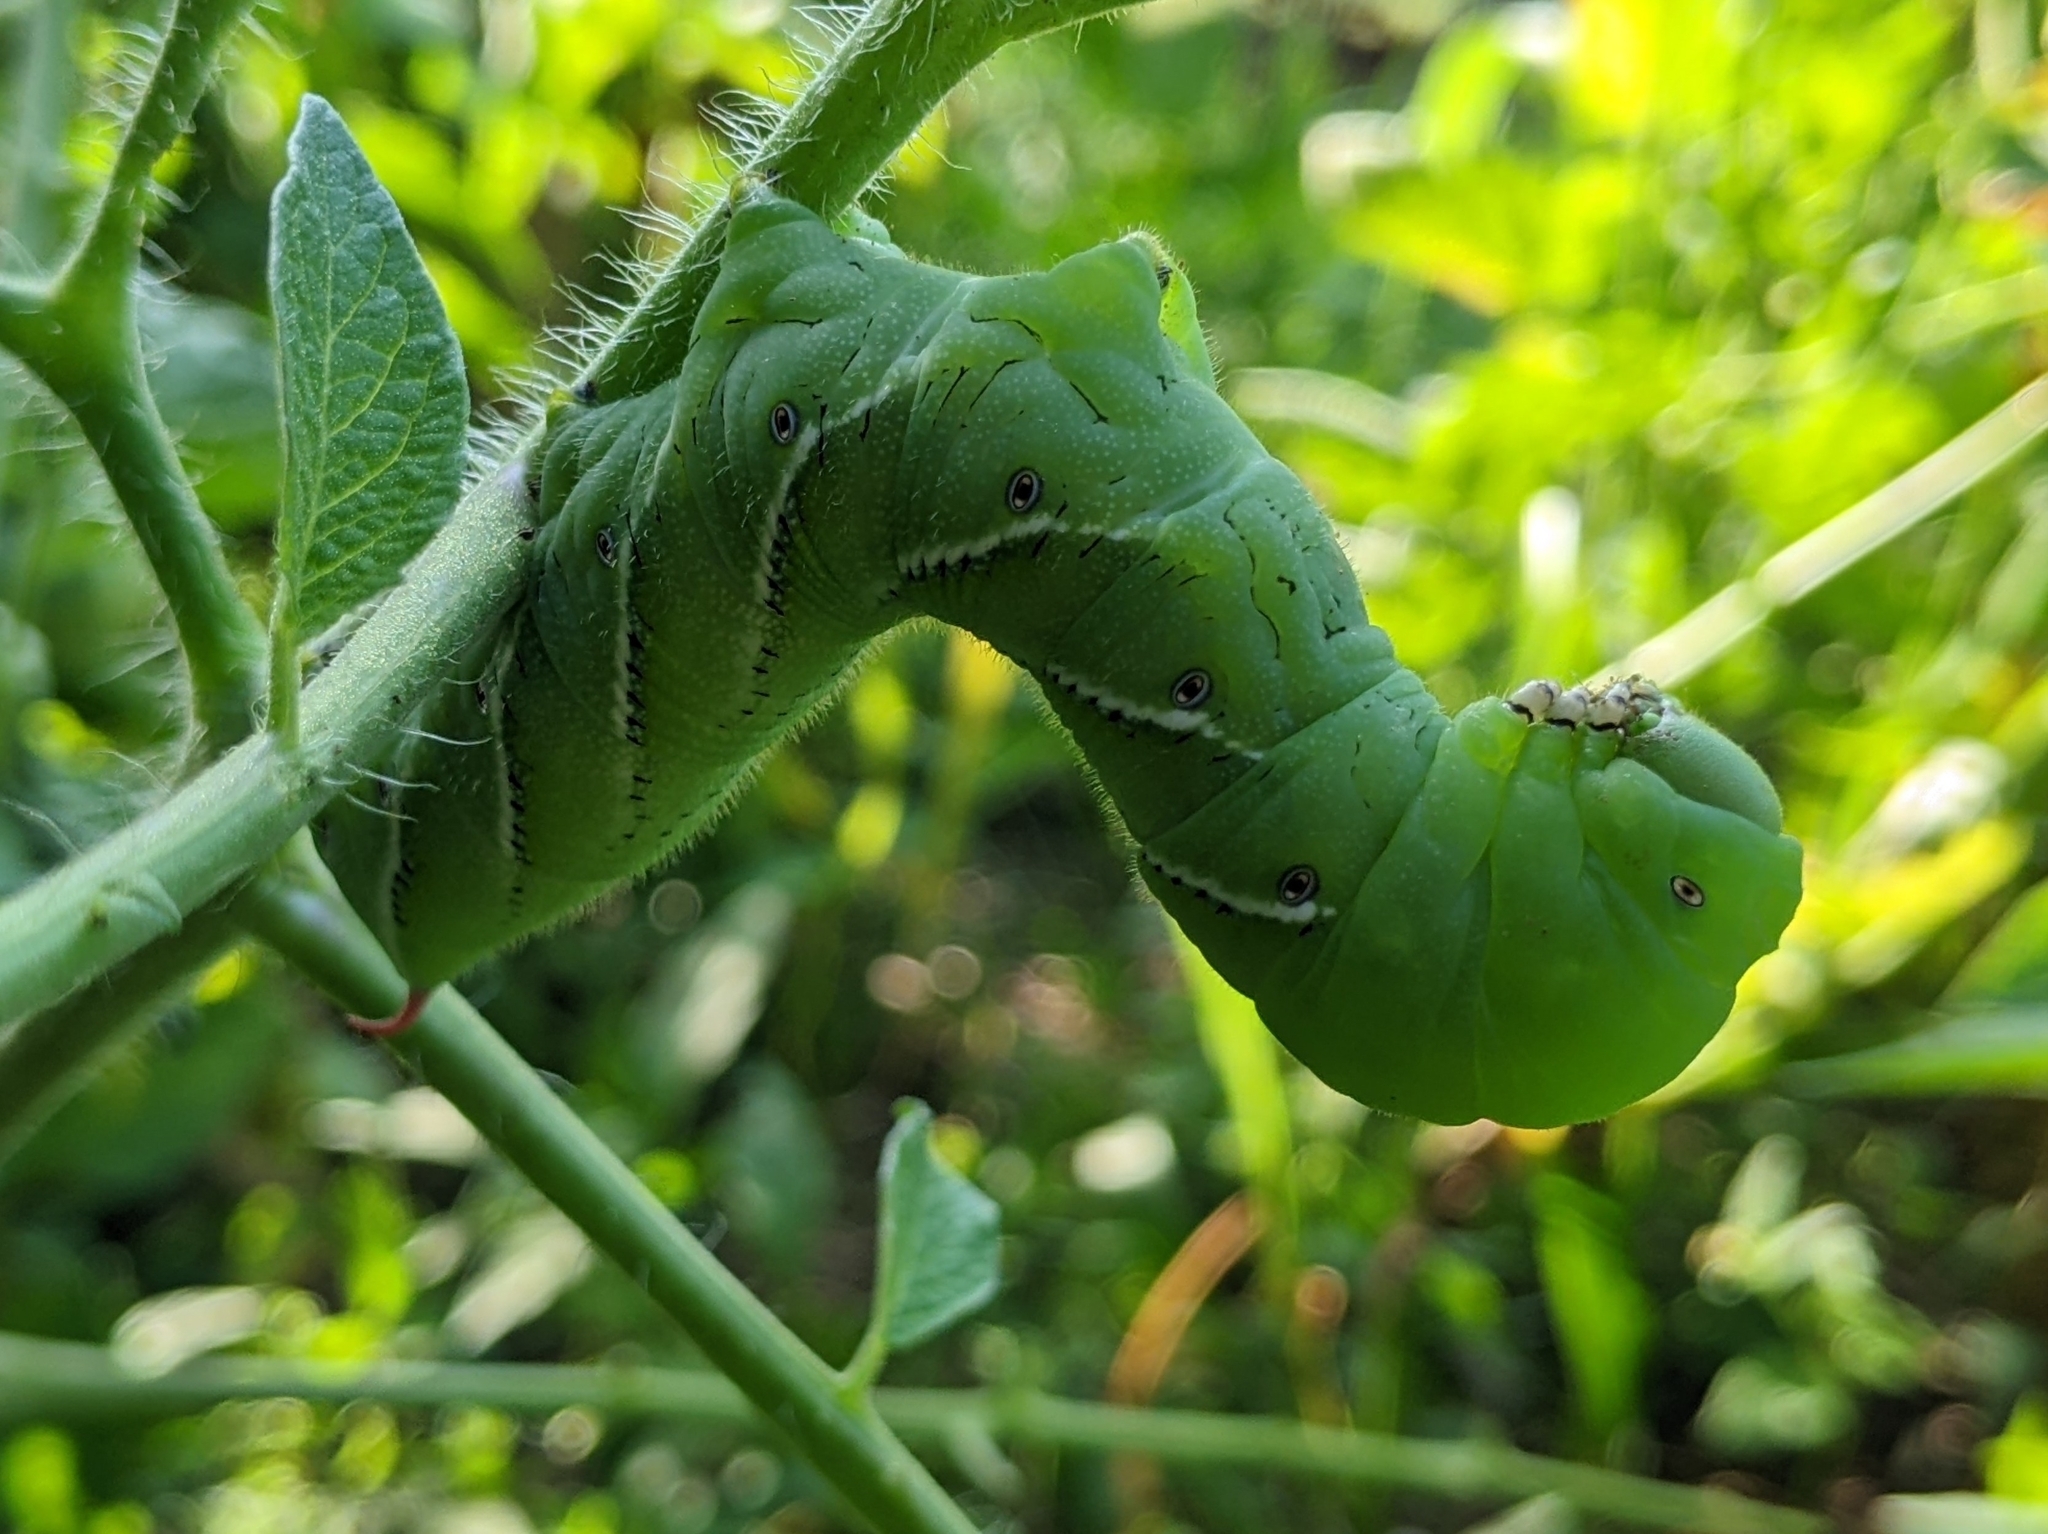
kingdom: Animalia
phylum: Arthropoda
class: Insecta
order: Lepidoptera
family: Sphingidae
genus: Manduca
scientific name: Manduca sexta
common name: Carolina sphinx
